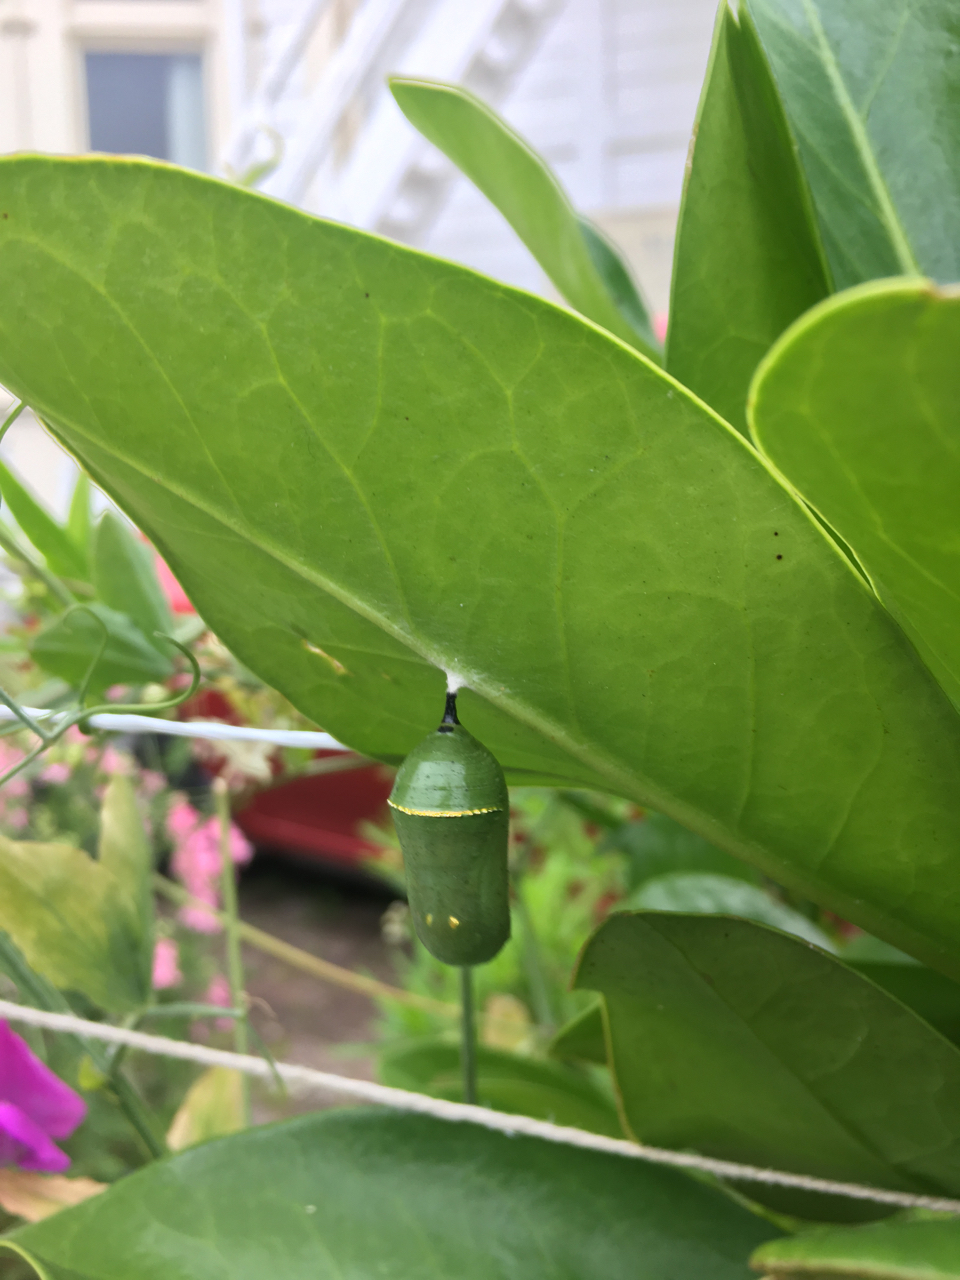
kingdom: Animalia
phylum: Arthropoda
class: Insecta
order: Lepidoptera
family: Nymphalidae
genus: Danaus
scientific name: Danaus plexippus
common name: Monarch
